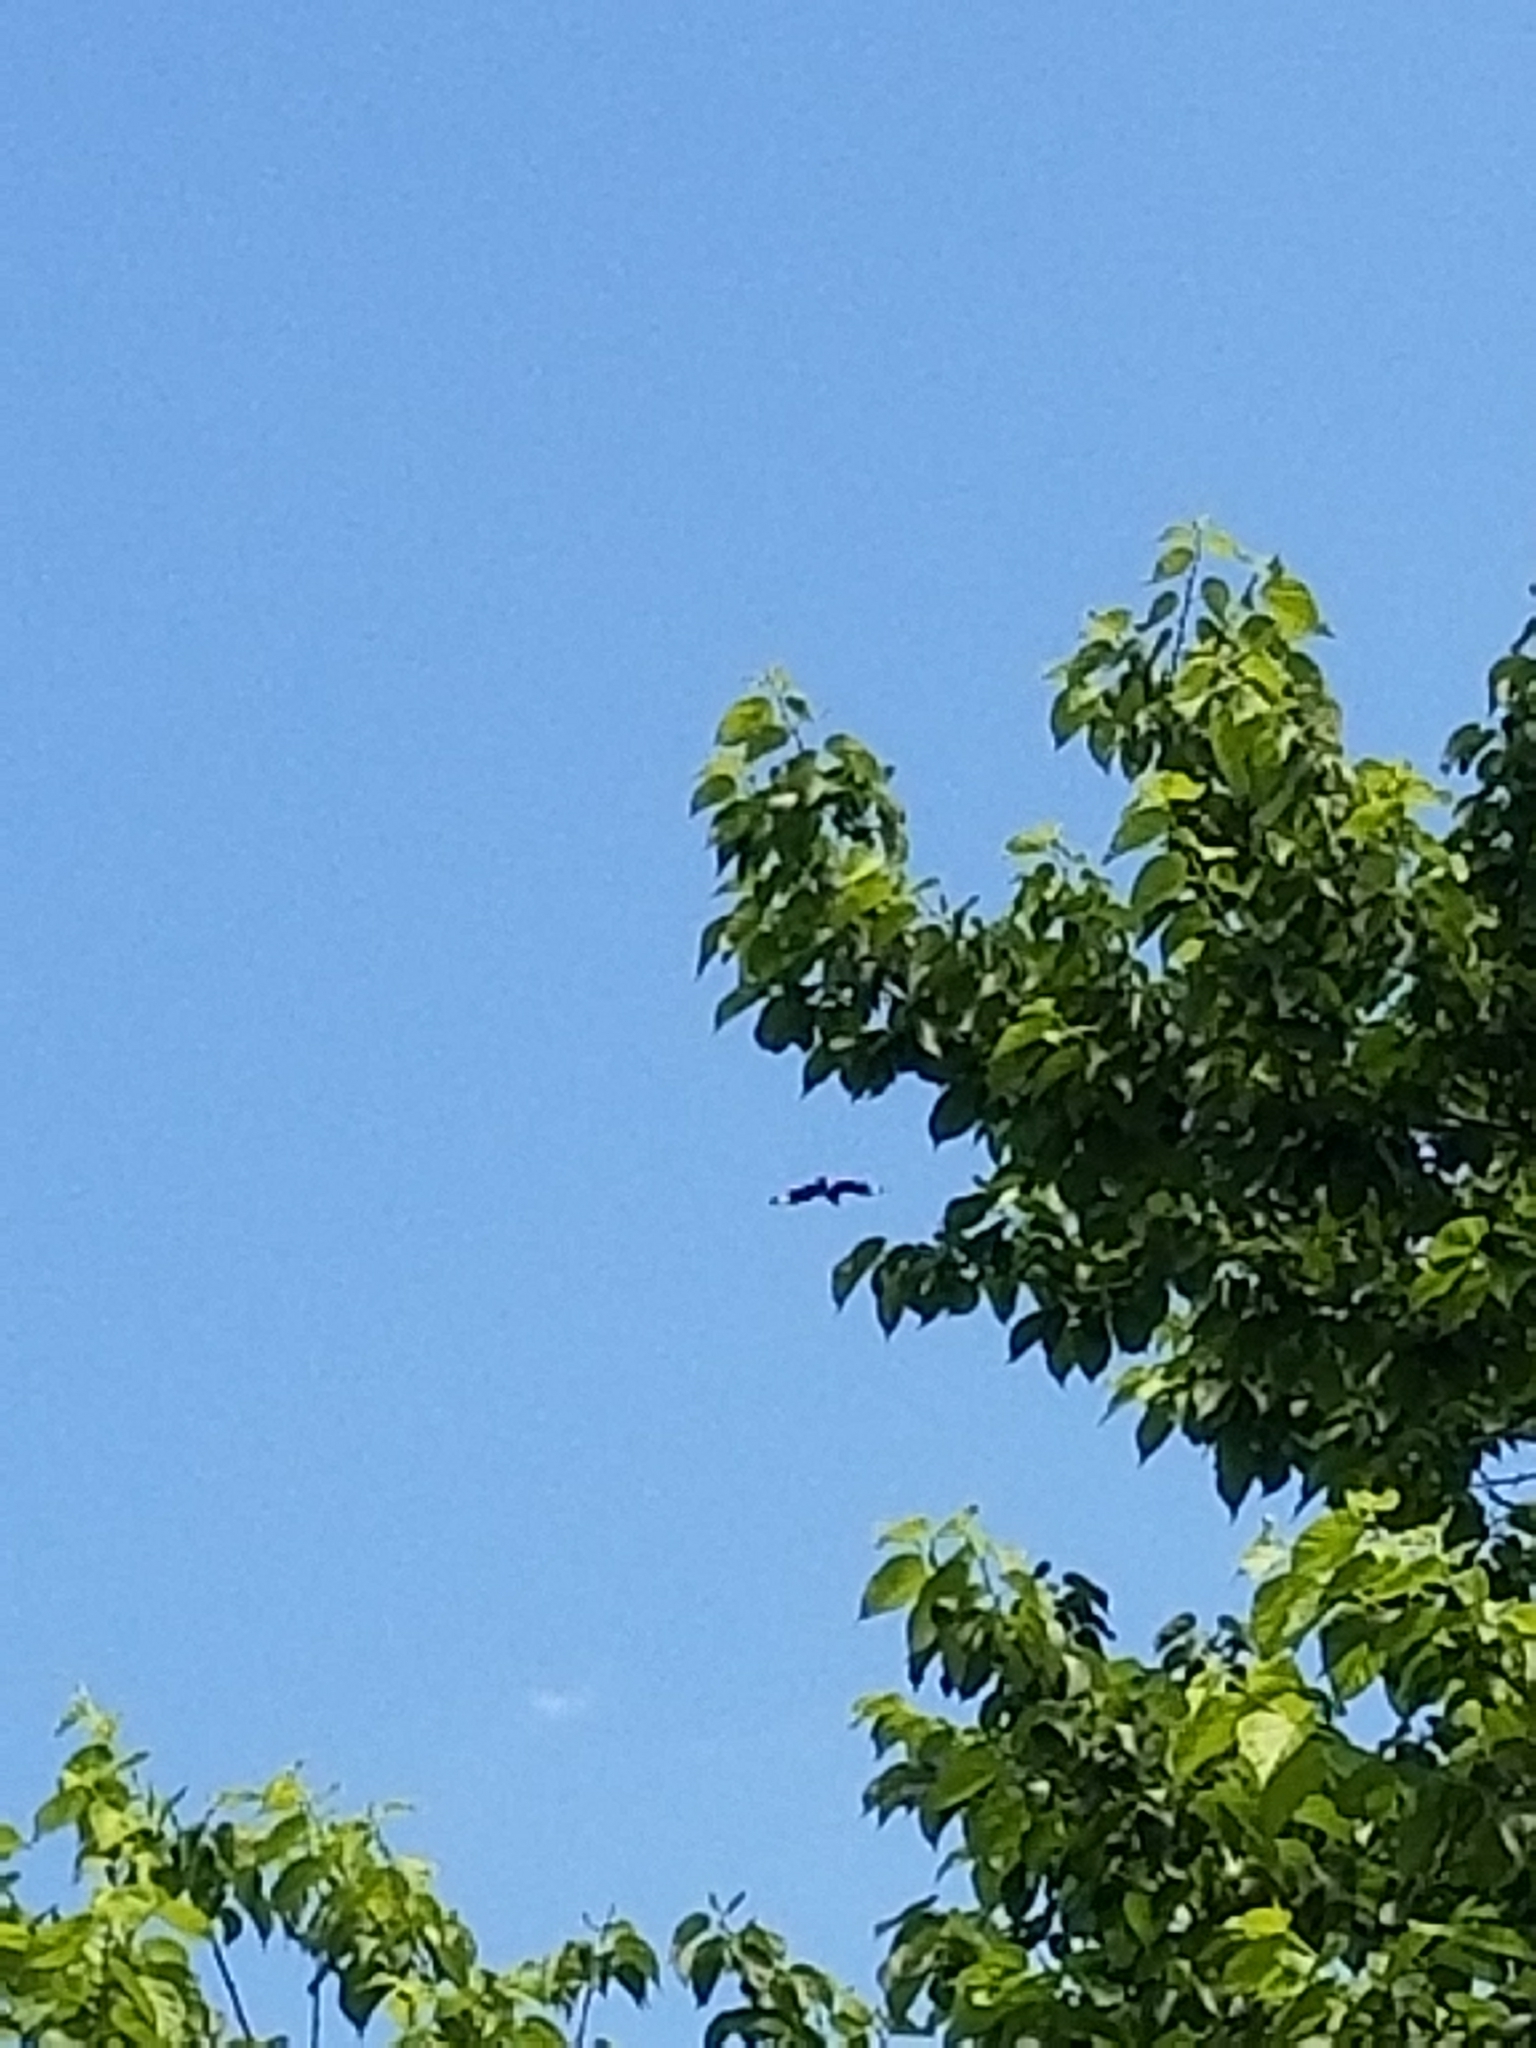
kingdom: Animalia
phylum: Chordata
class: Aves
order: Falconiformes
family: Falconidae
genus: Caracara
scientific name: Caracara plancus
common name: Southern caracara
